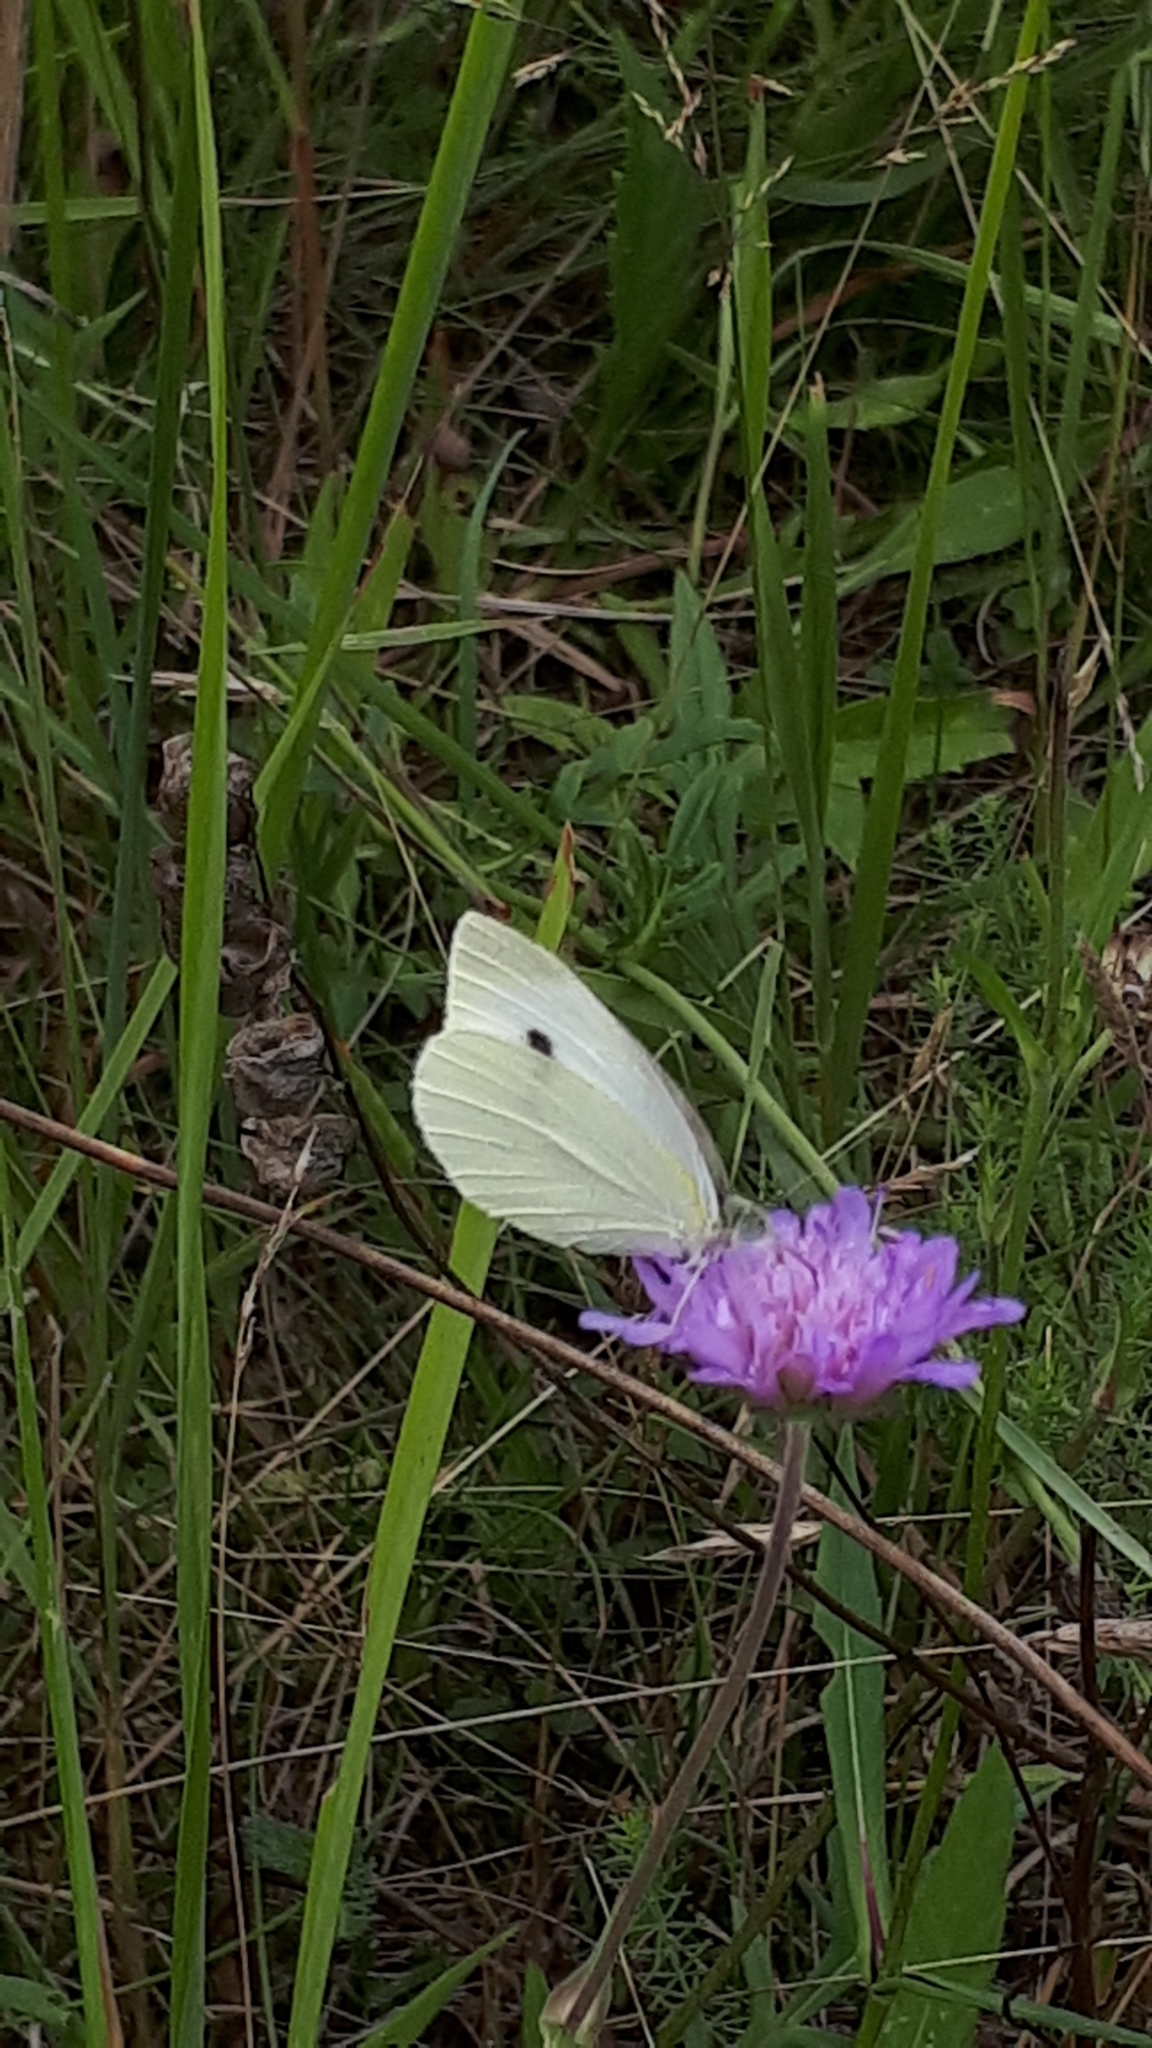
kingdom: Animalia
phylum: Arthropoda
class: Insecta
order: Lepidoptera
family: Pieridae
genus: Pieris
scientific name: Pieris rapae
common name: Small white
